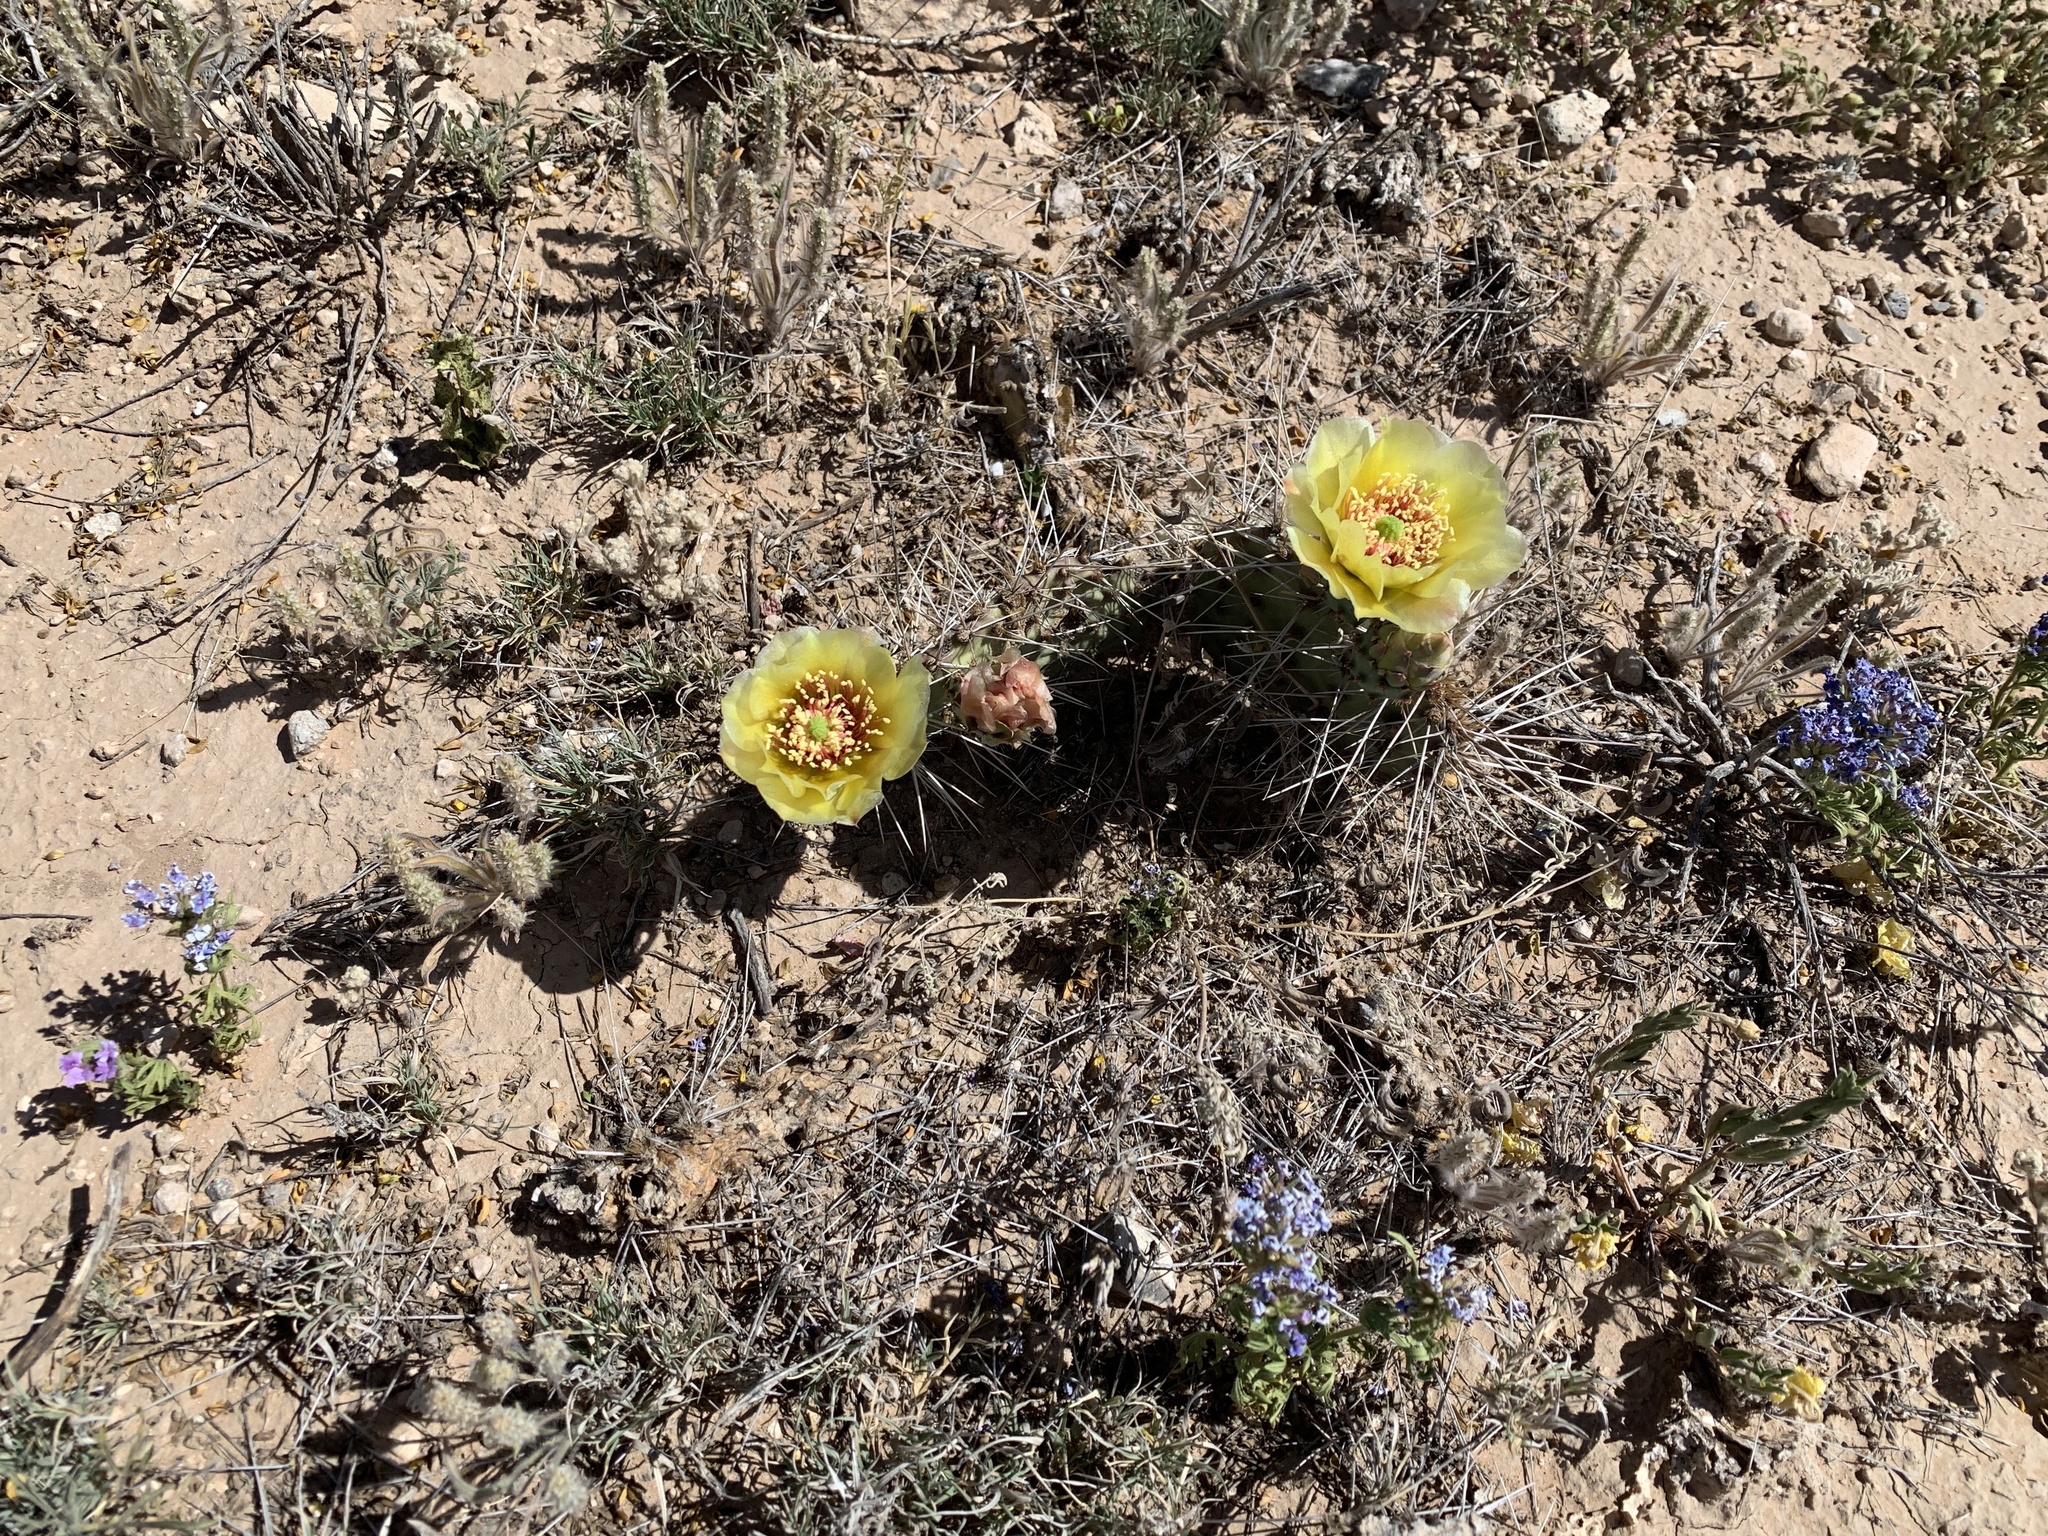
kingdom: Plantae
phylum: Tracheophyta
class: Magnoliopsida
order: Caryophyllales
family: Cactaceae
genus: Opuntia
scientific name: Opuntia macrorhiza
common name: Grassland pricklypear
